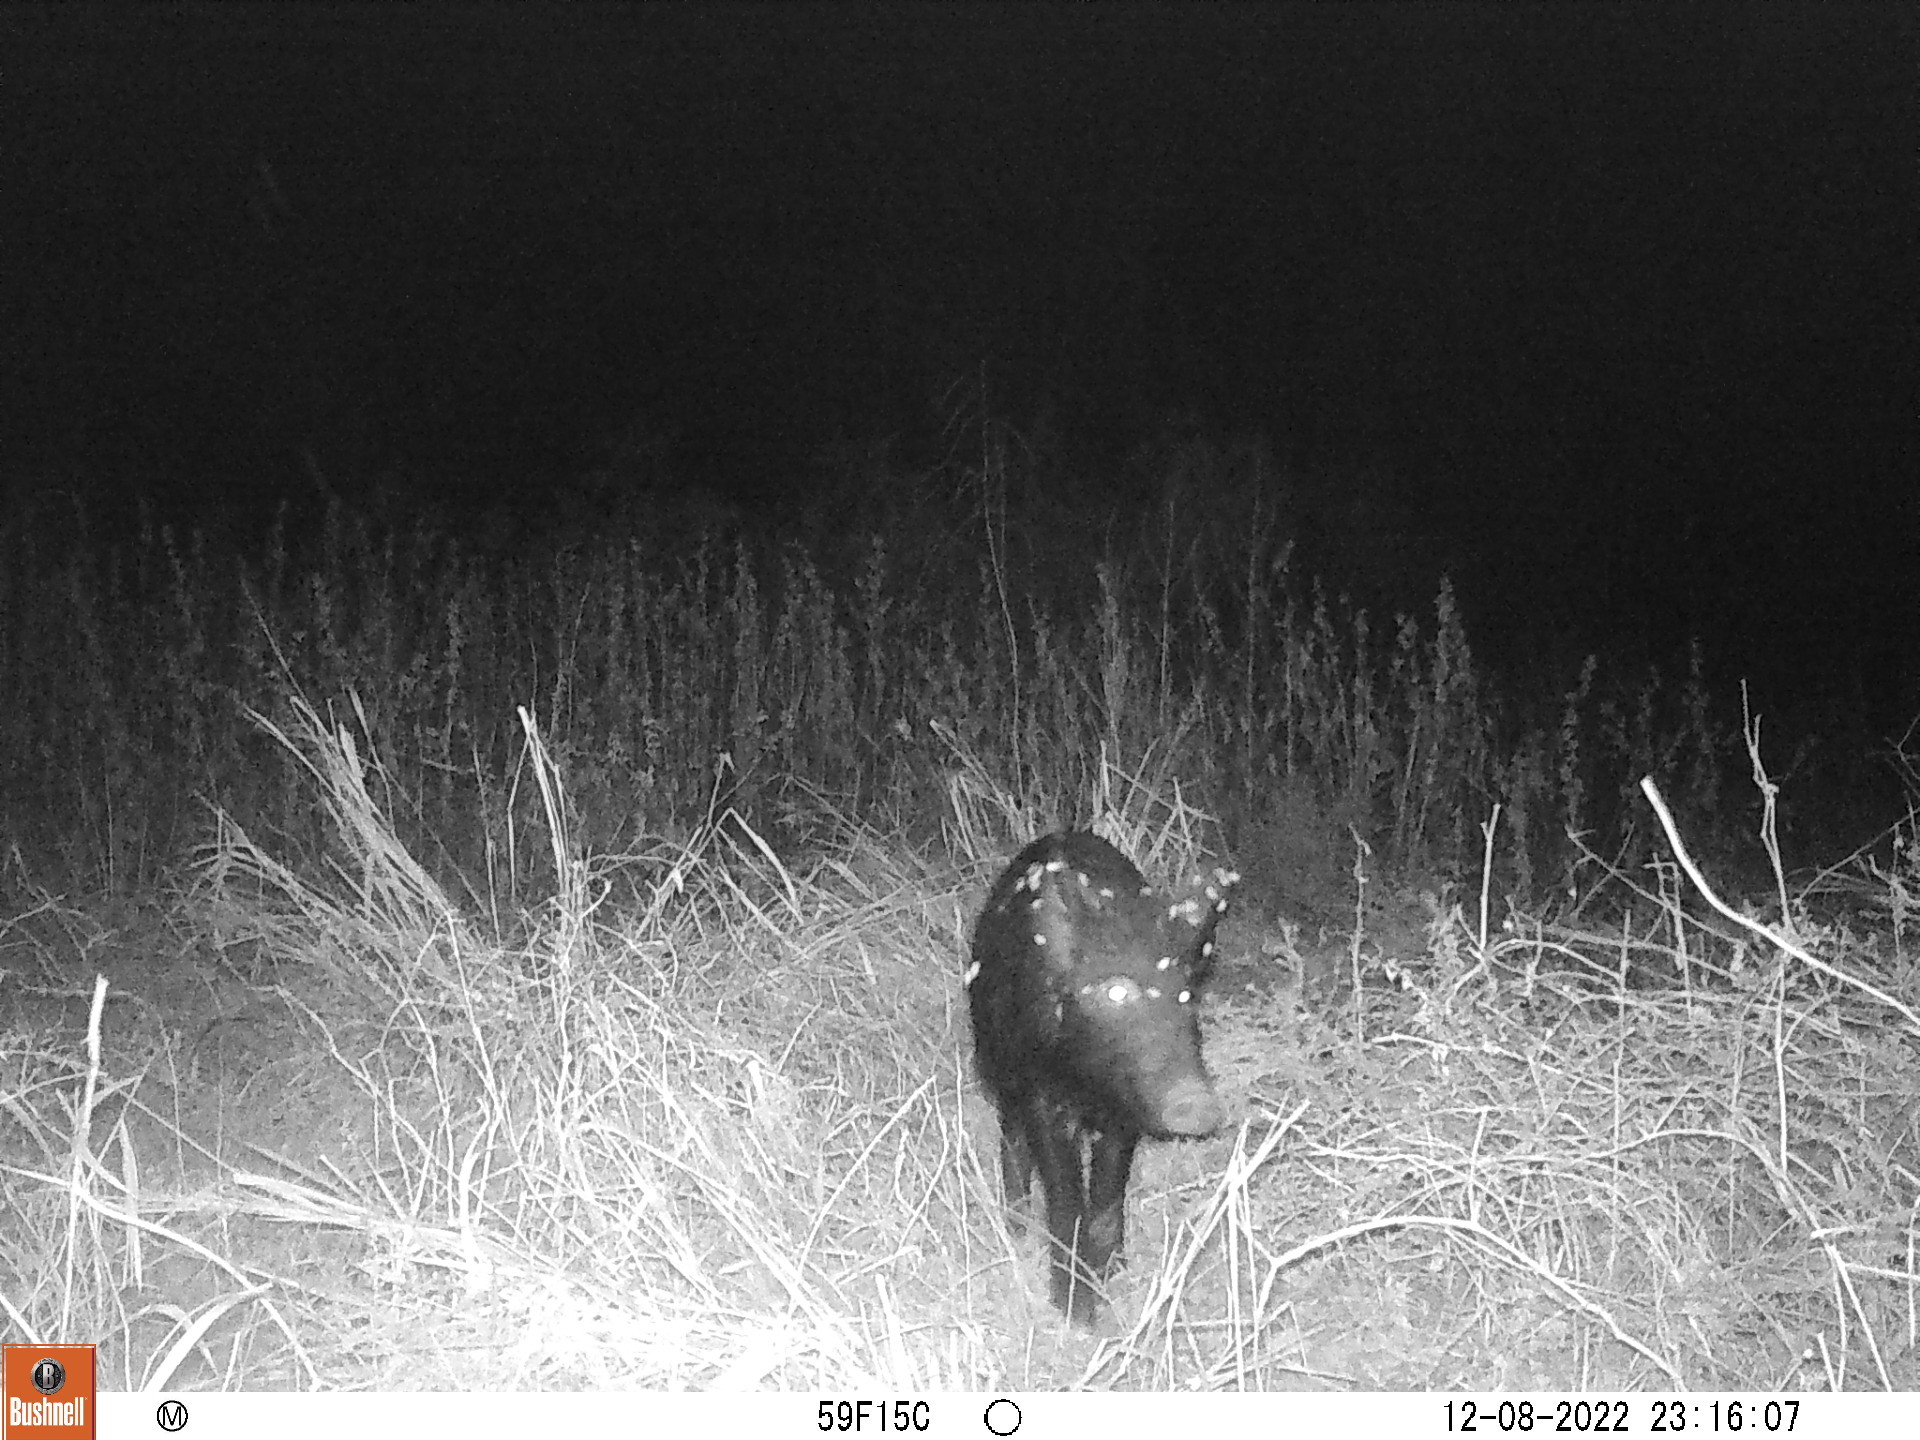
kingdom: Animalia
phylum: Chordata
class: Mammalia
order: Artiodactyla
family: Suidae
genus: Sus
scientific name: Sus scrofa
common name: Wild boar
